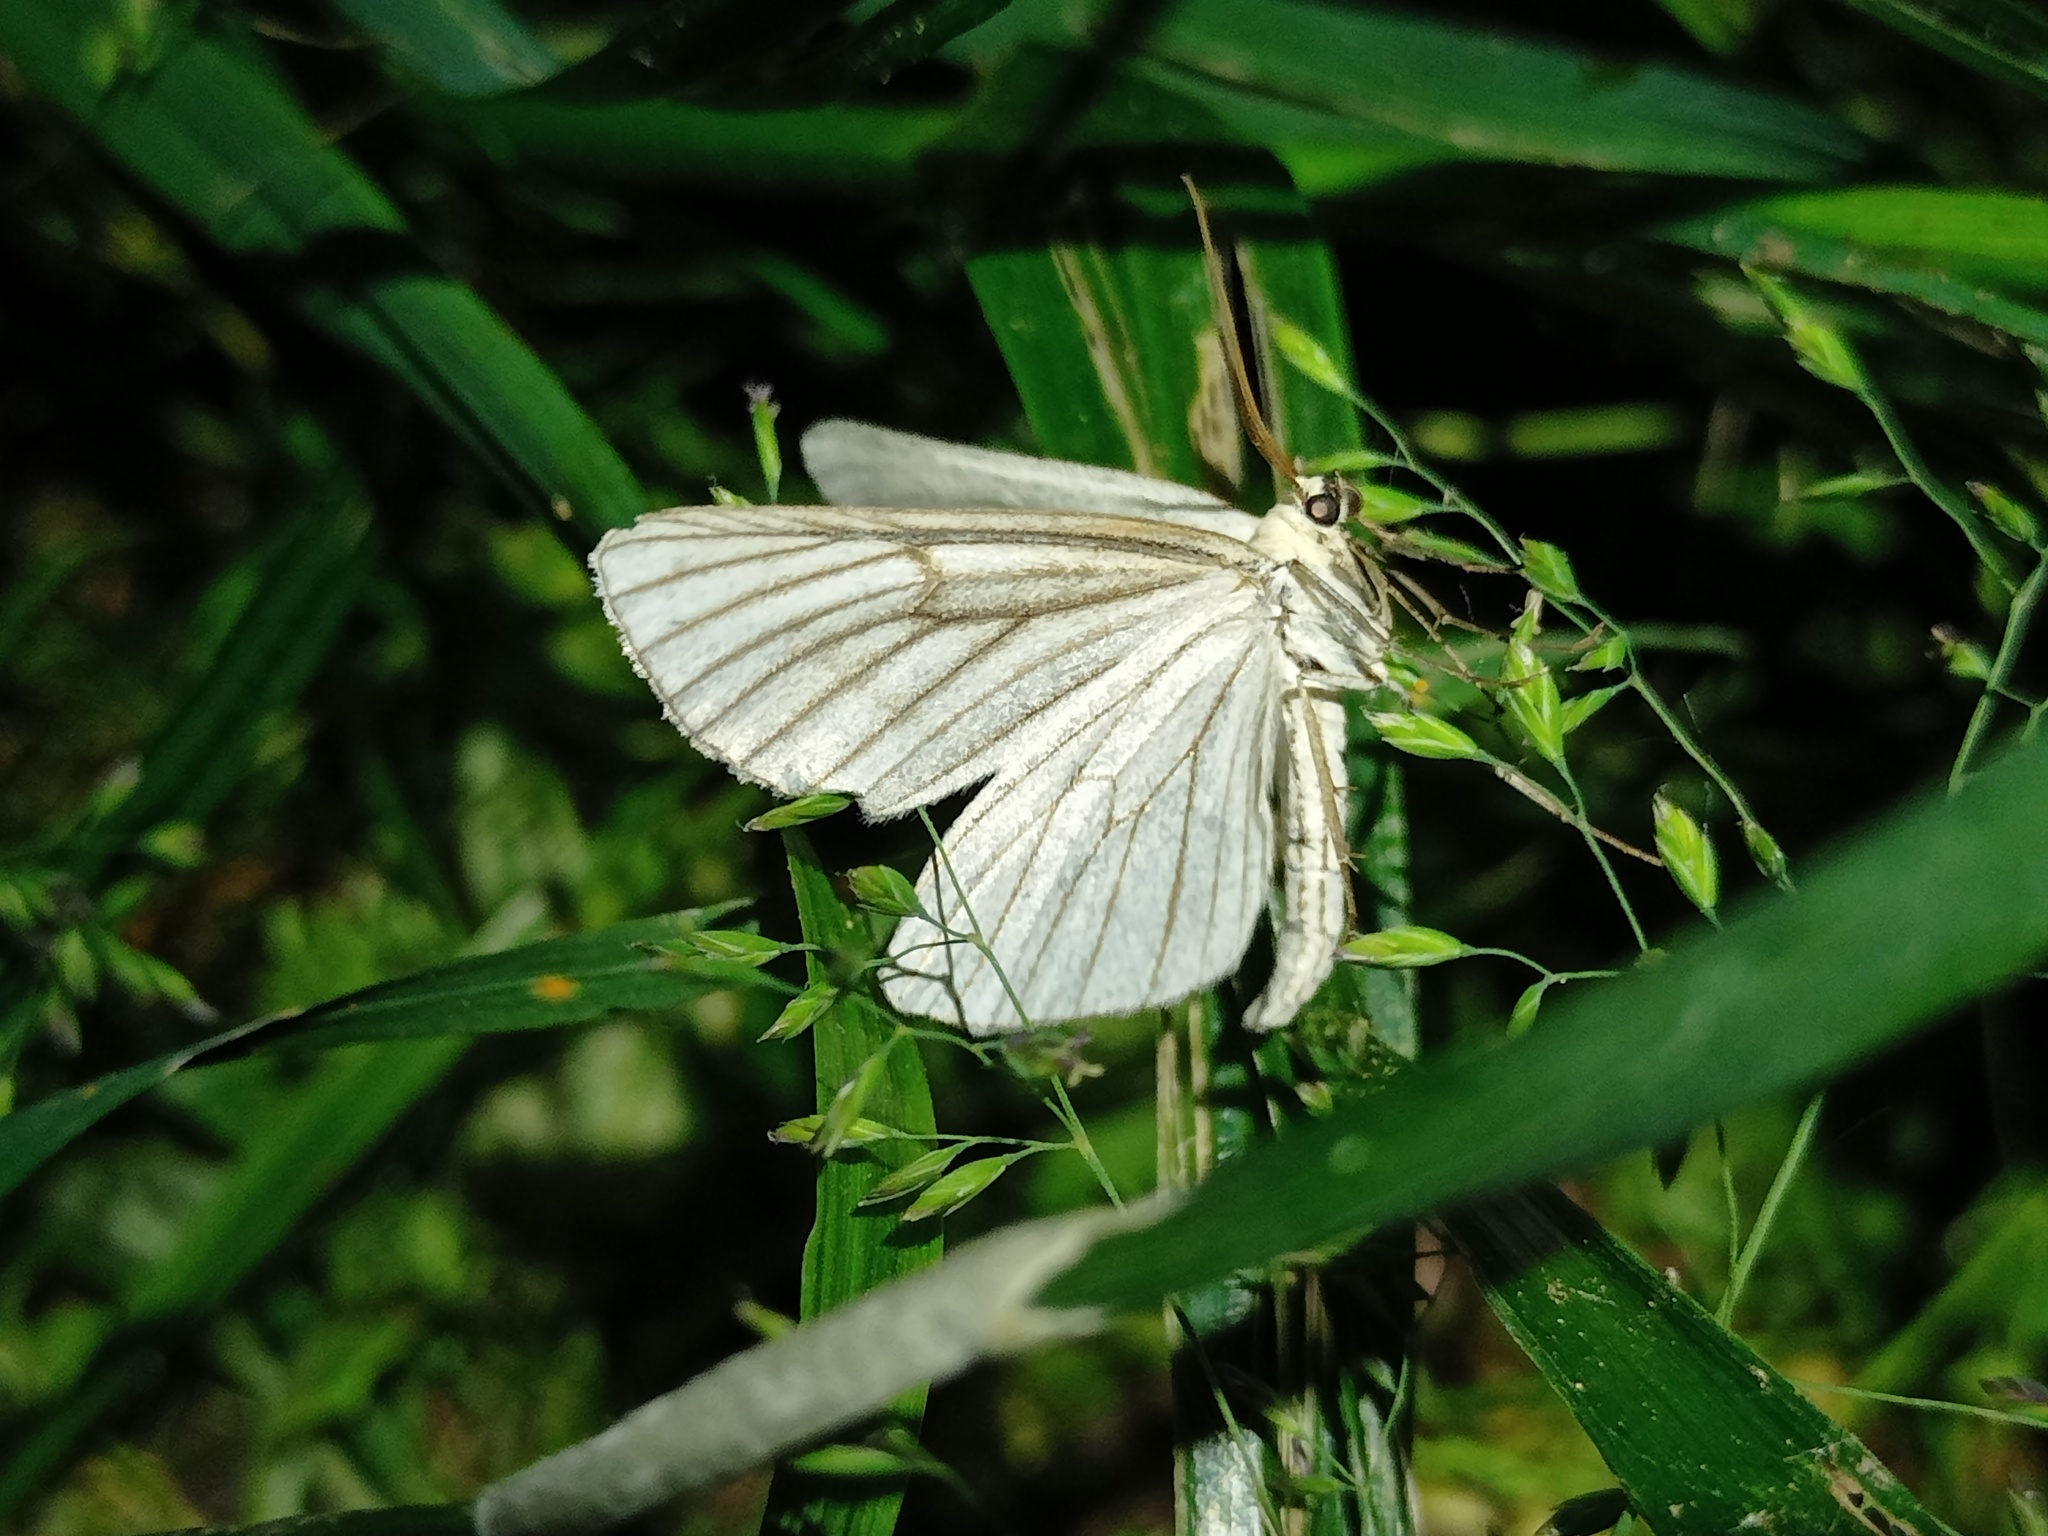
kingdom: Animalia
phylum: Arthropoda
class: Insecta
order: Lepidoptera
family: Geometridae
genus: Siona
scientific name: Siona lineata
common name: Black-veined moth
